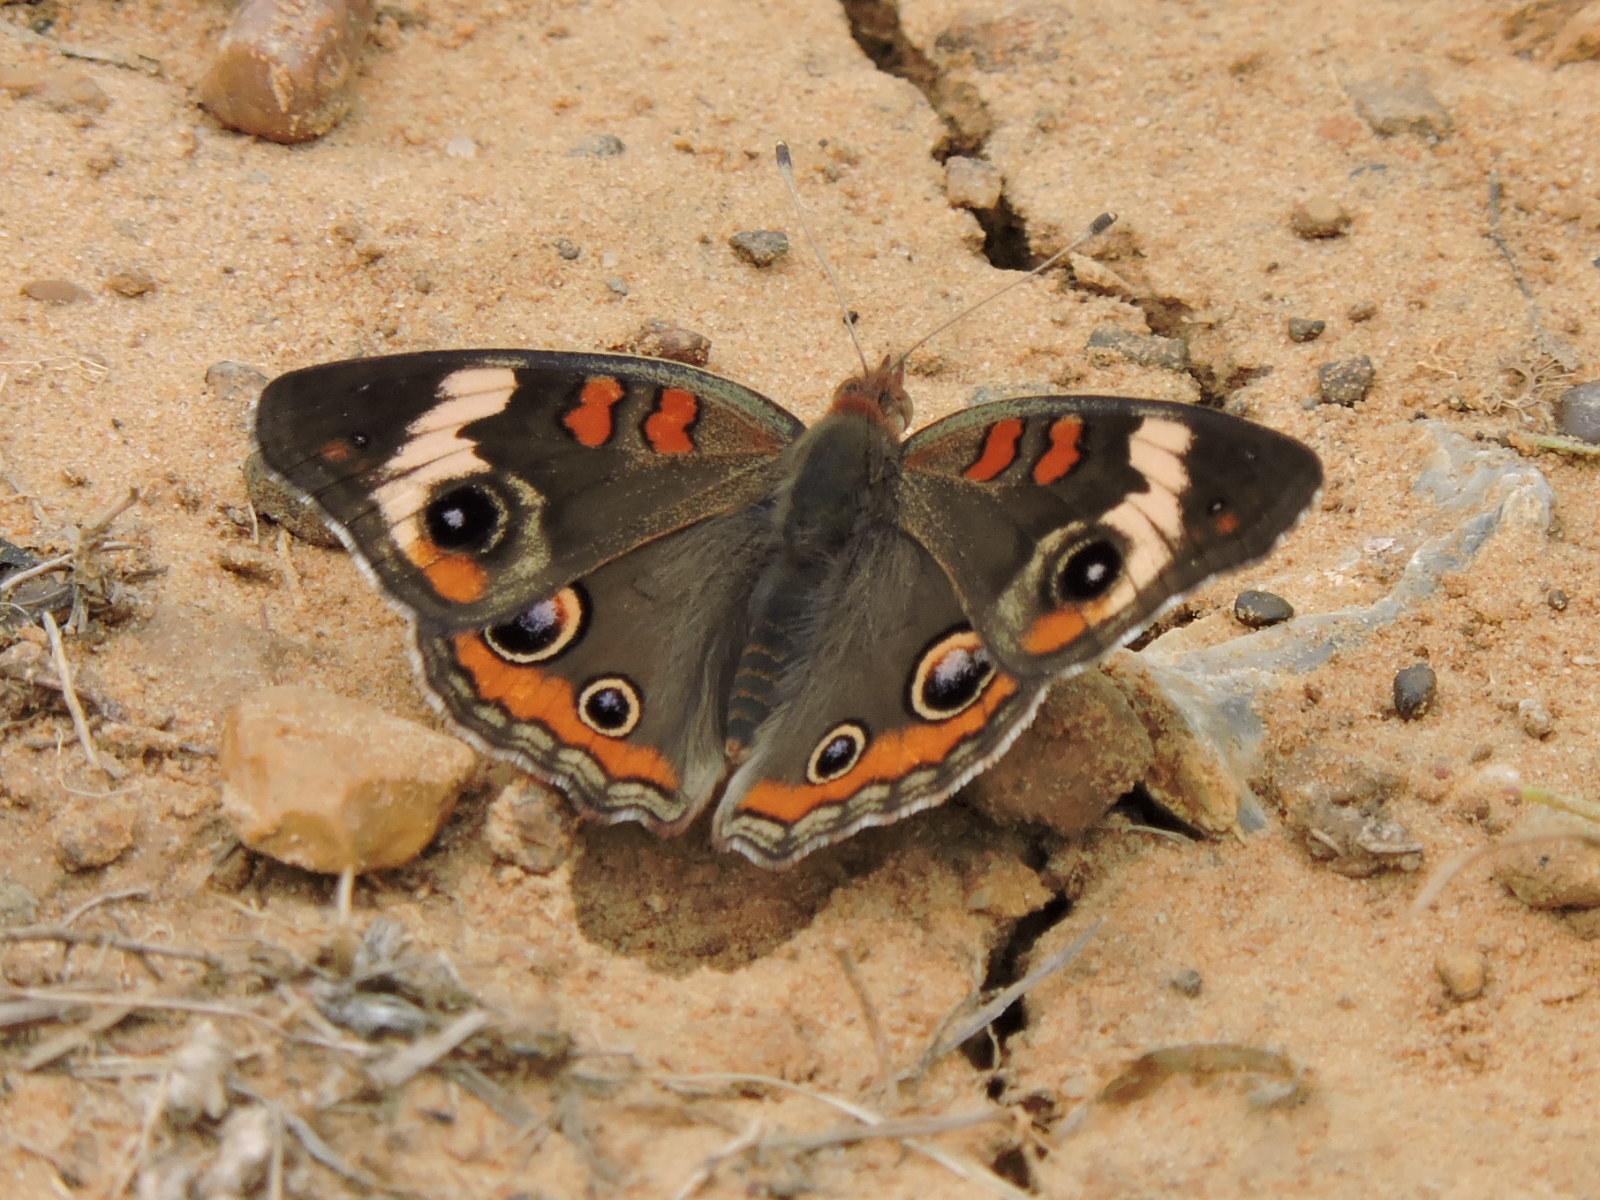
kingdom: Animalia
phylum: Arthropoda
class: Insecta
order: Lepidoptera
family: Nymphalidae
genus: Junonia
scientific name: Junonia coenia
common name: Common buckeye
